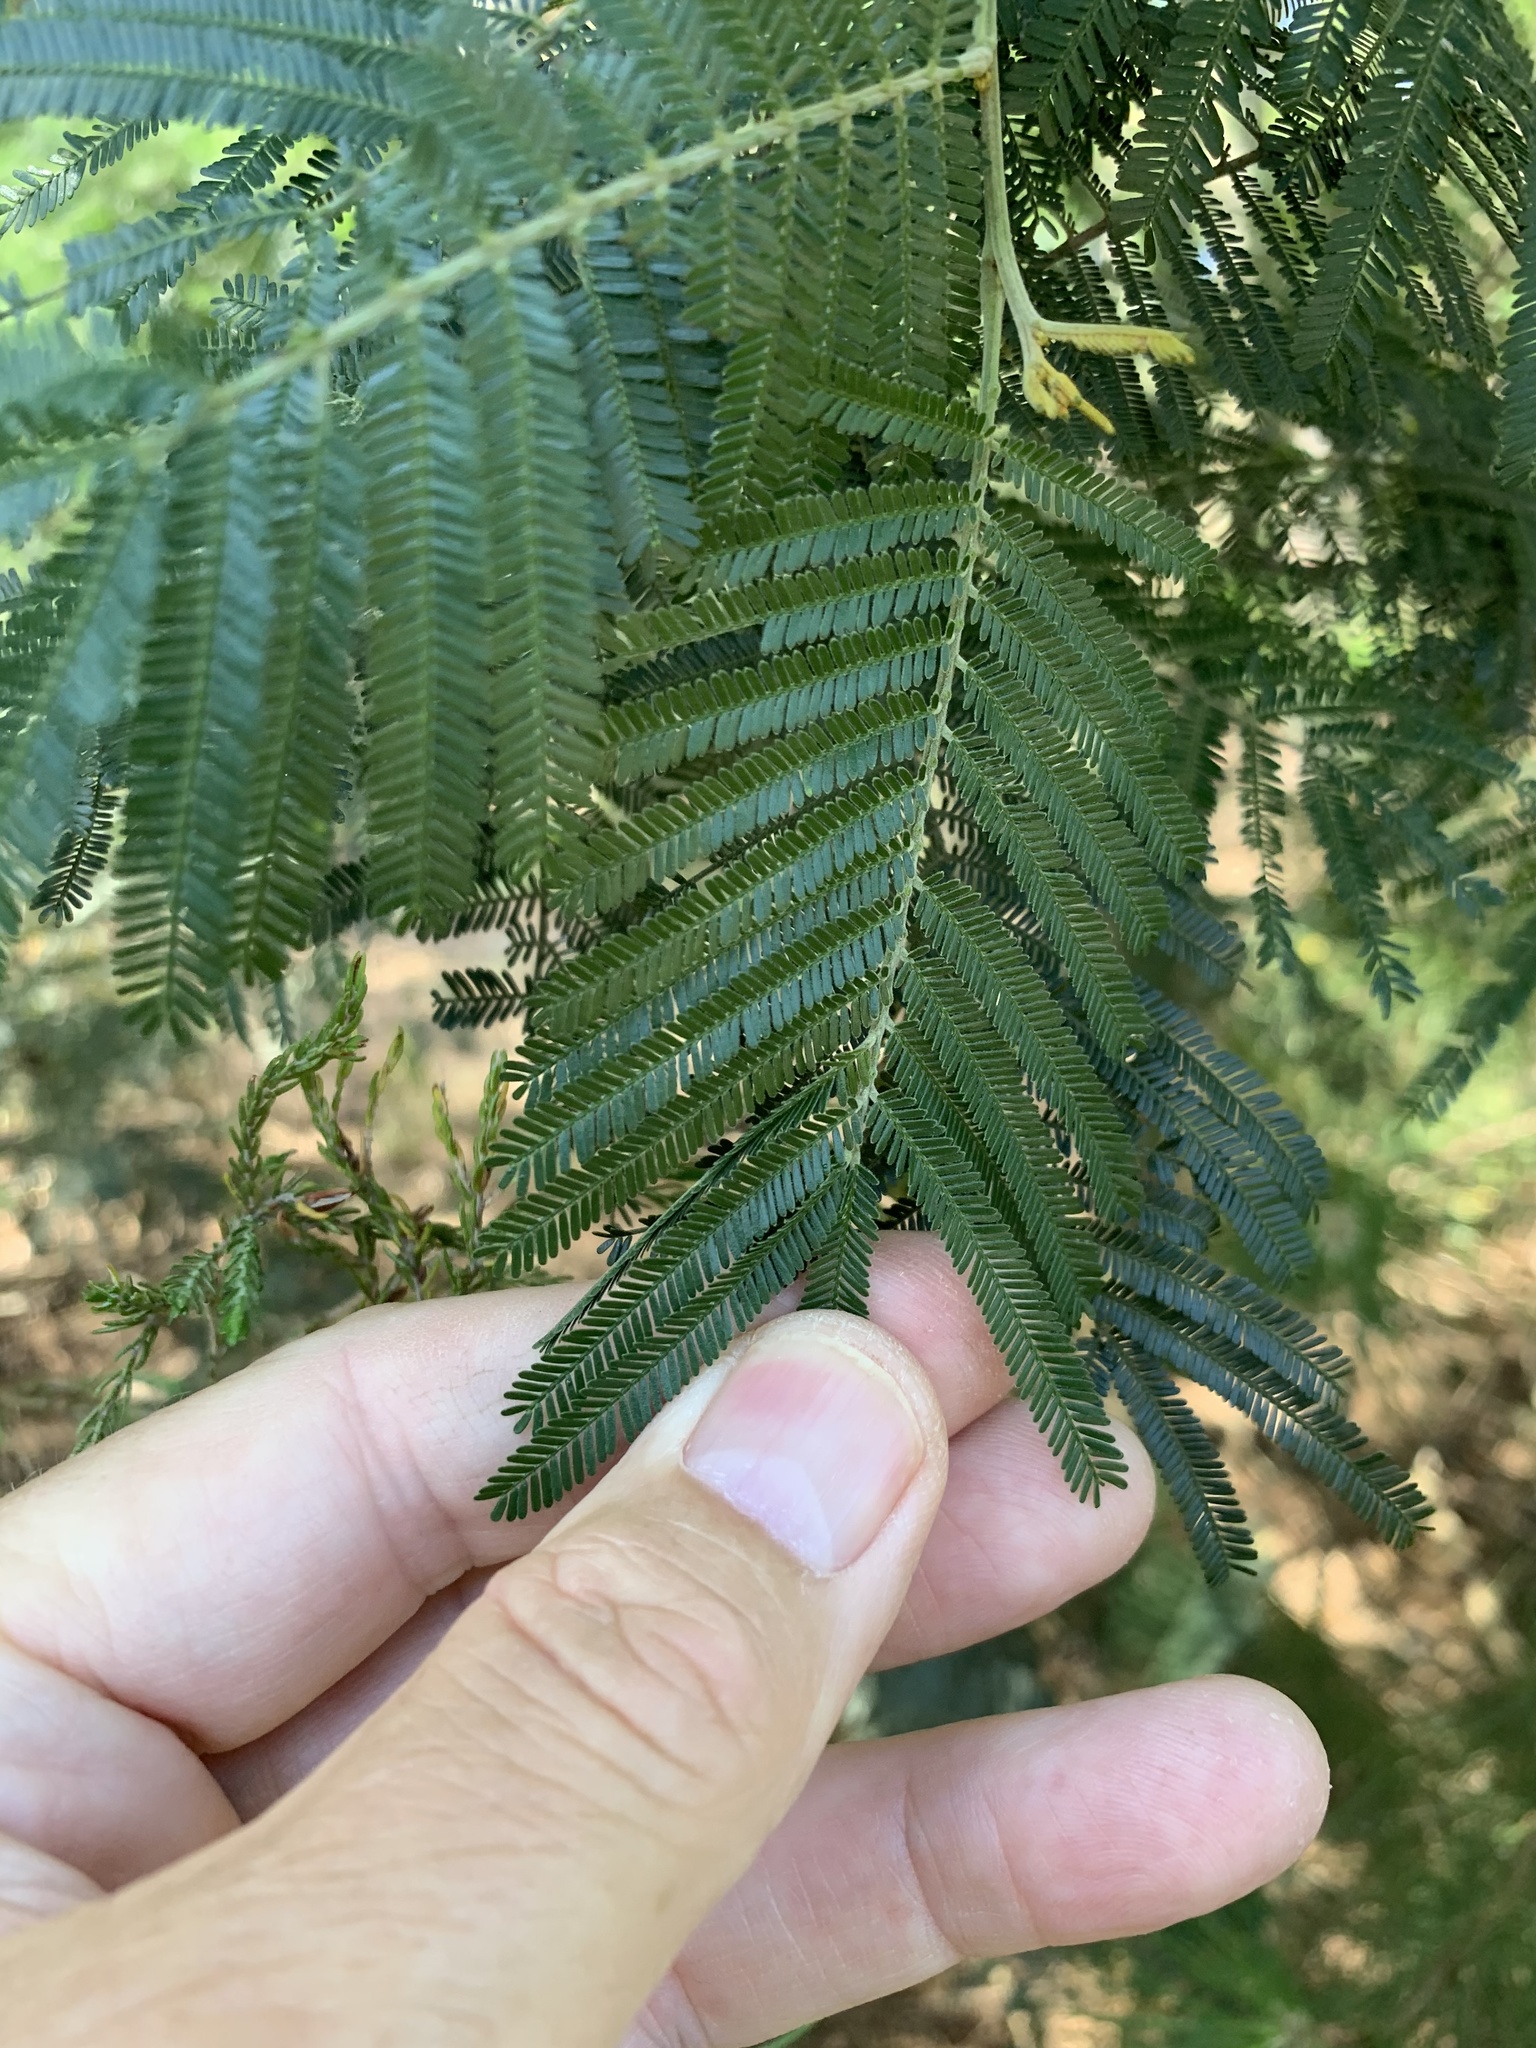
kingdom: Plantae
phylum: Tracheophyta
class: Magnoliopsida
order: Fabales
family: Fabaceae
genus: Acacia
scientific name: Acacia mearnsii
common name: Black wattle
